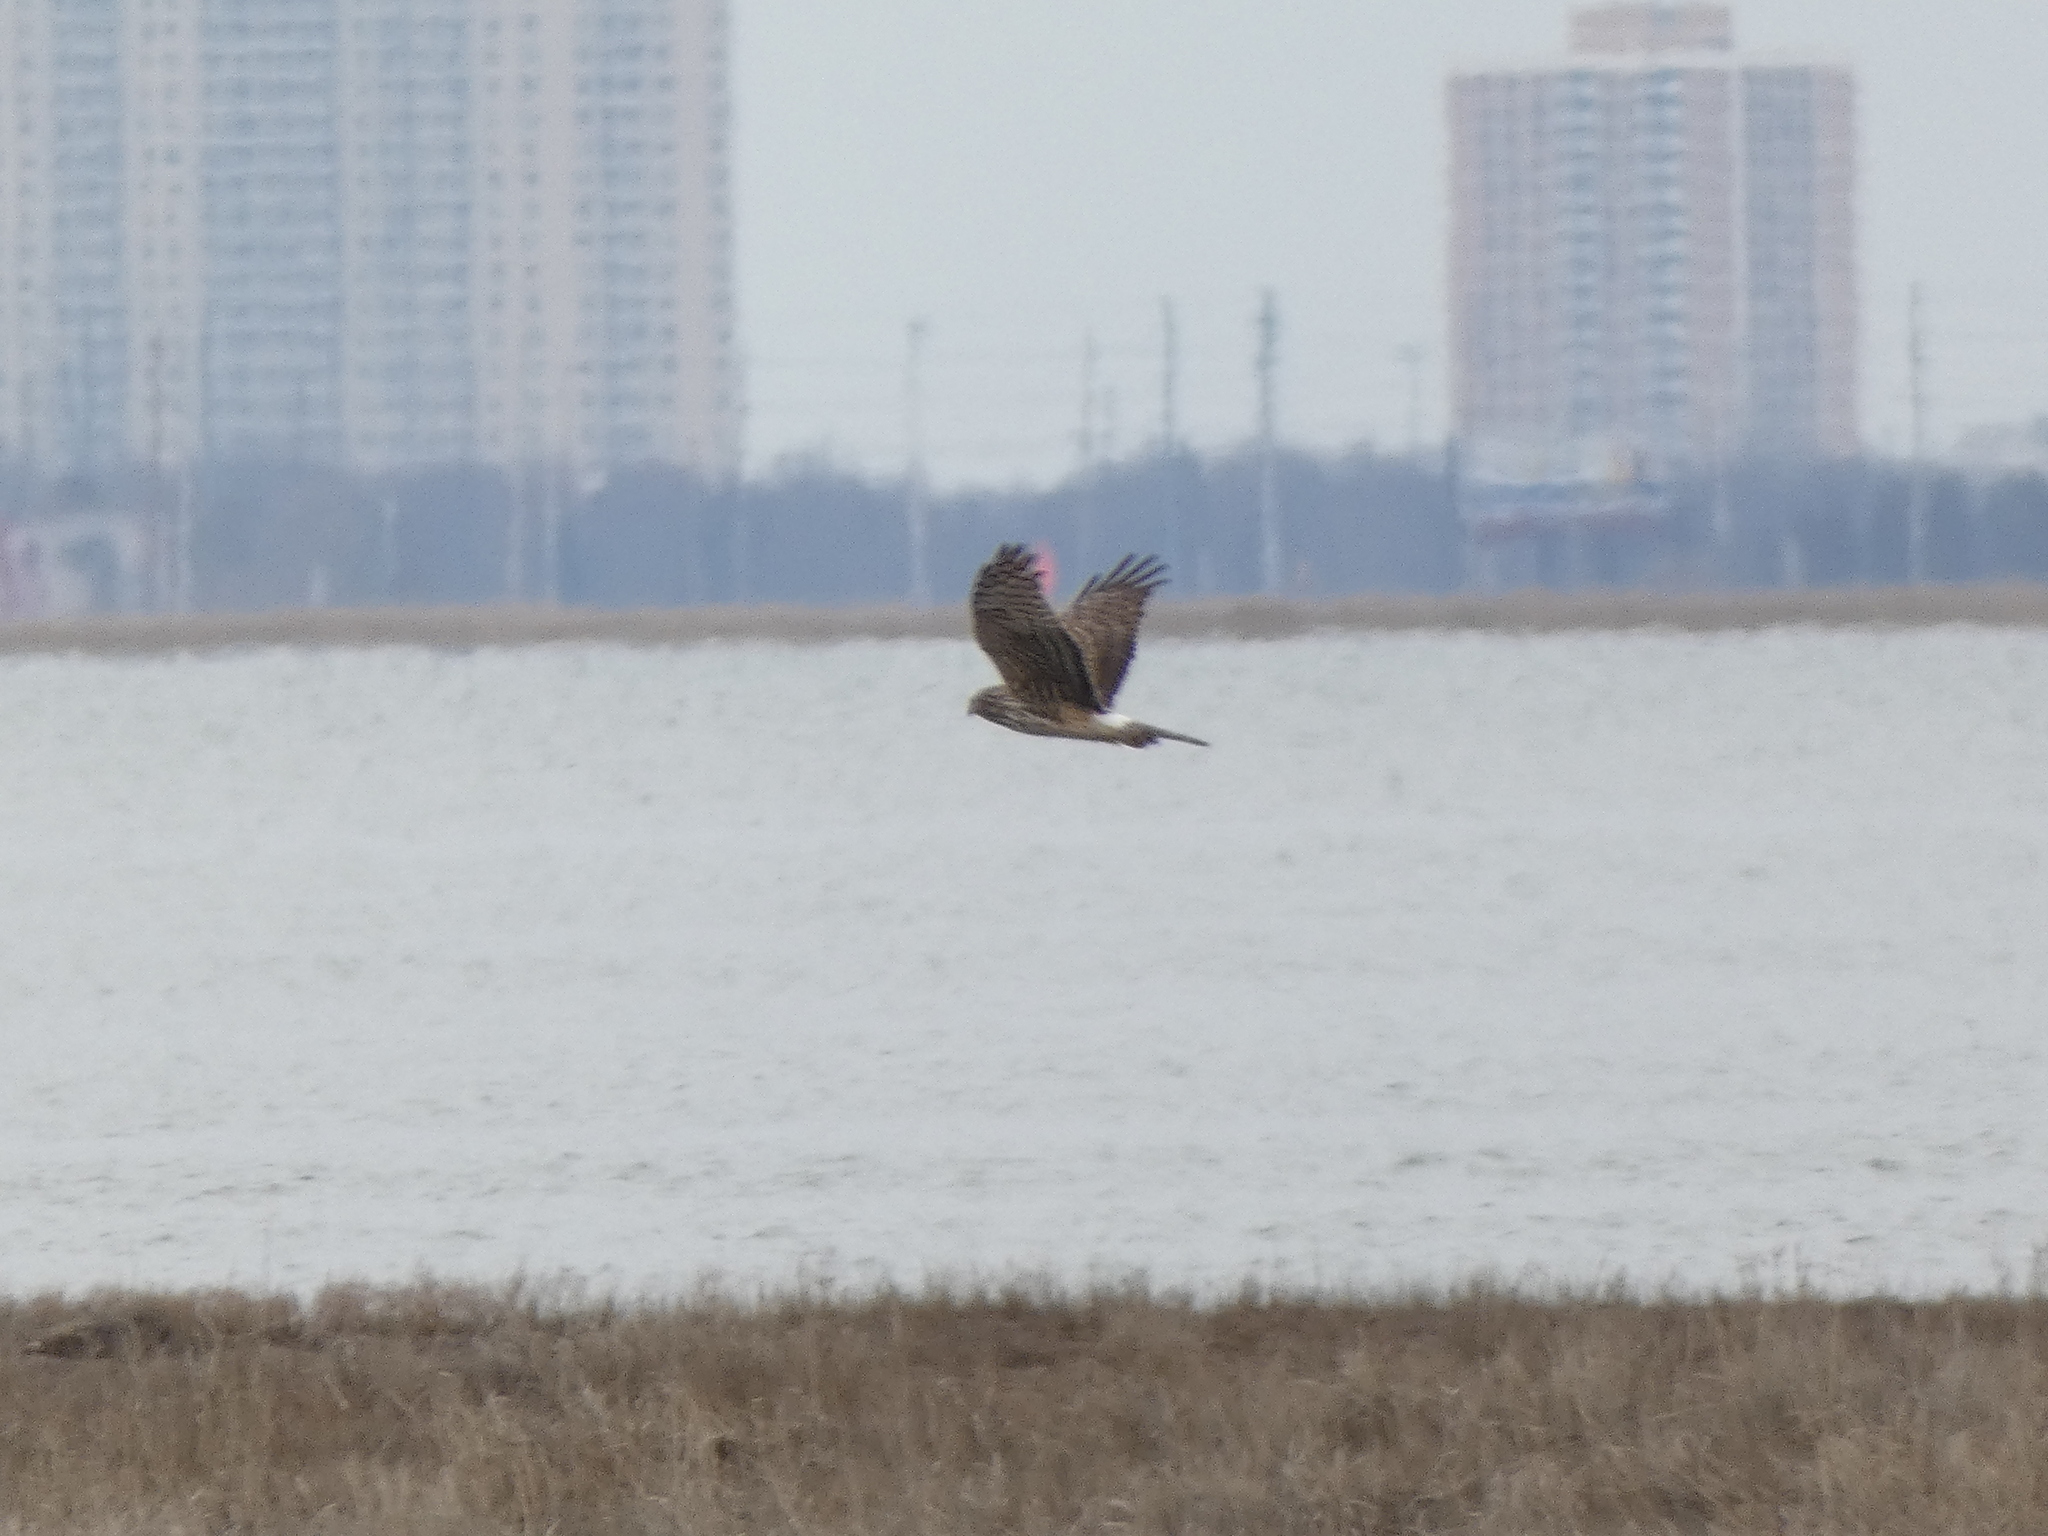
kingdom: Animalia
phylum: Chordata
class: Aves
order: Accipitriformes
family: Accipitridae
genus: Circus
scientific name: Circus cyaneus
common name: Hen harrier
